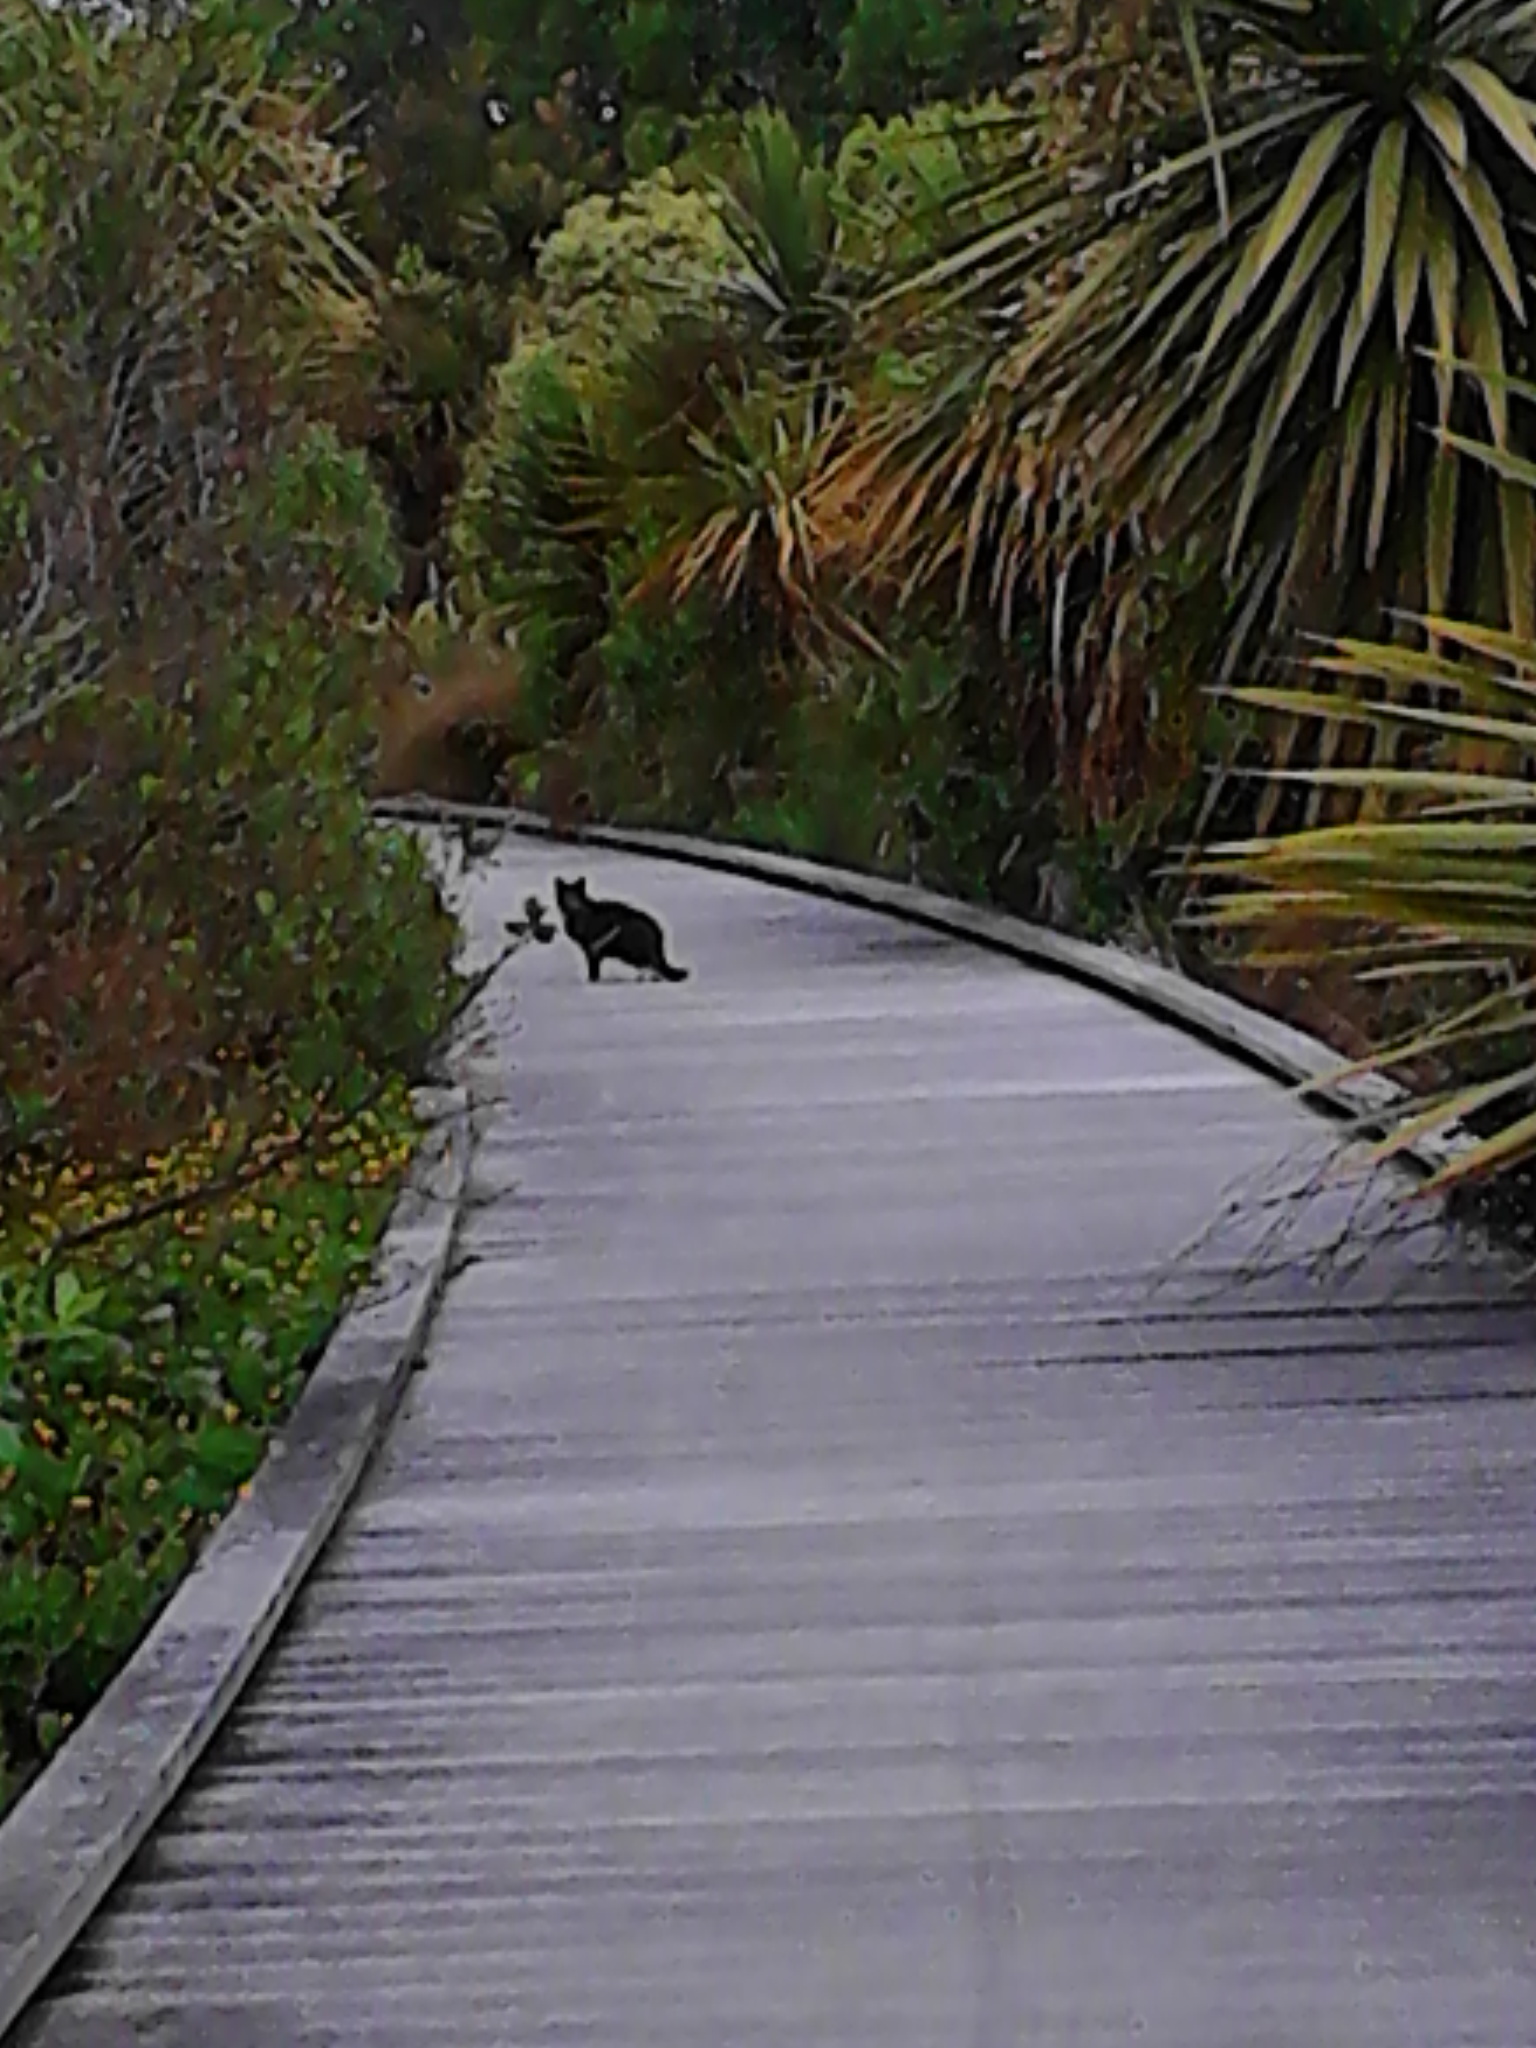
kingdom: Animalia
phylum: Chordata
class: Mammalia
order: Carnivora
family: Felidae
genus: Felis
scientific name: Felis catus
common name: Domestic cat
